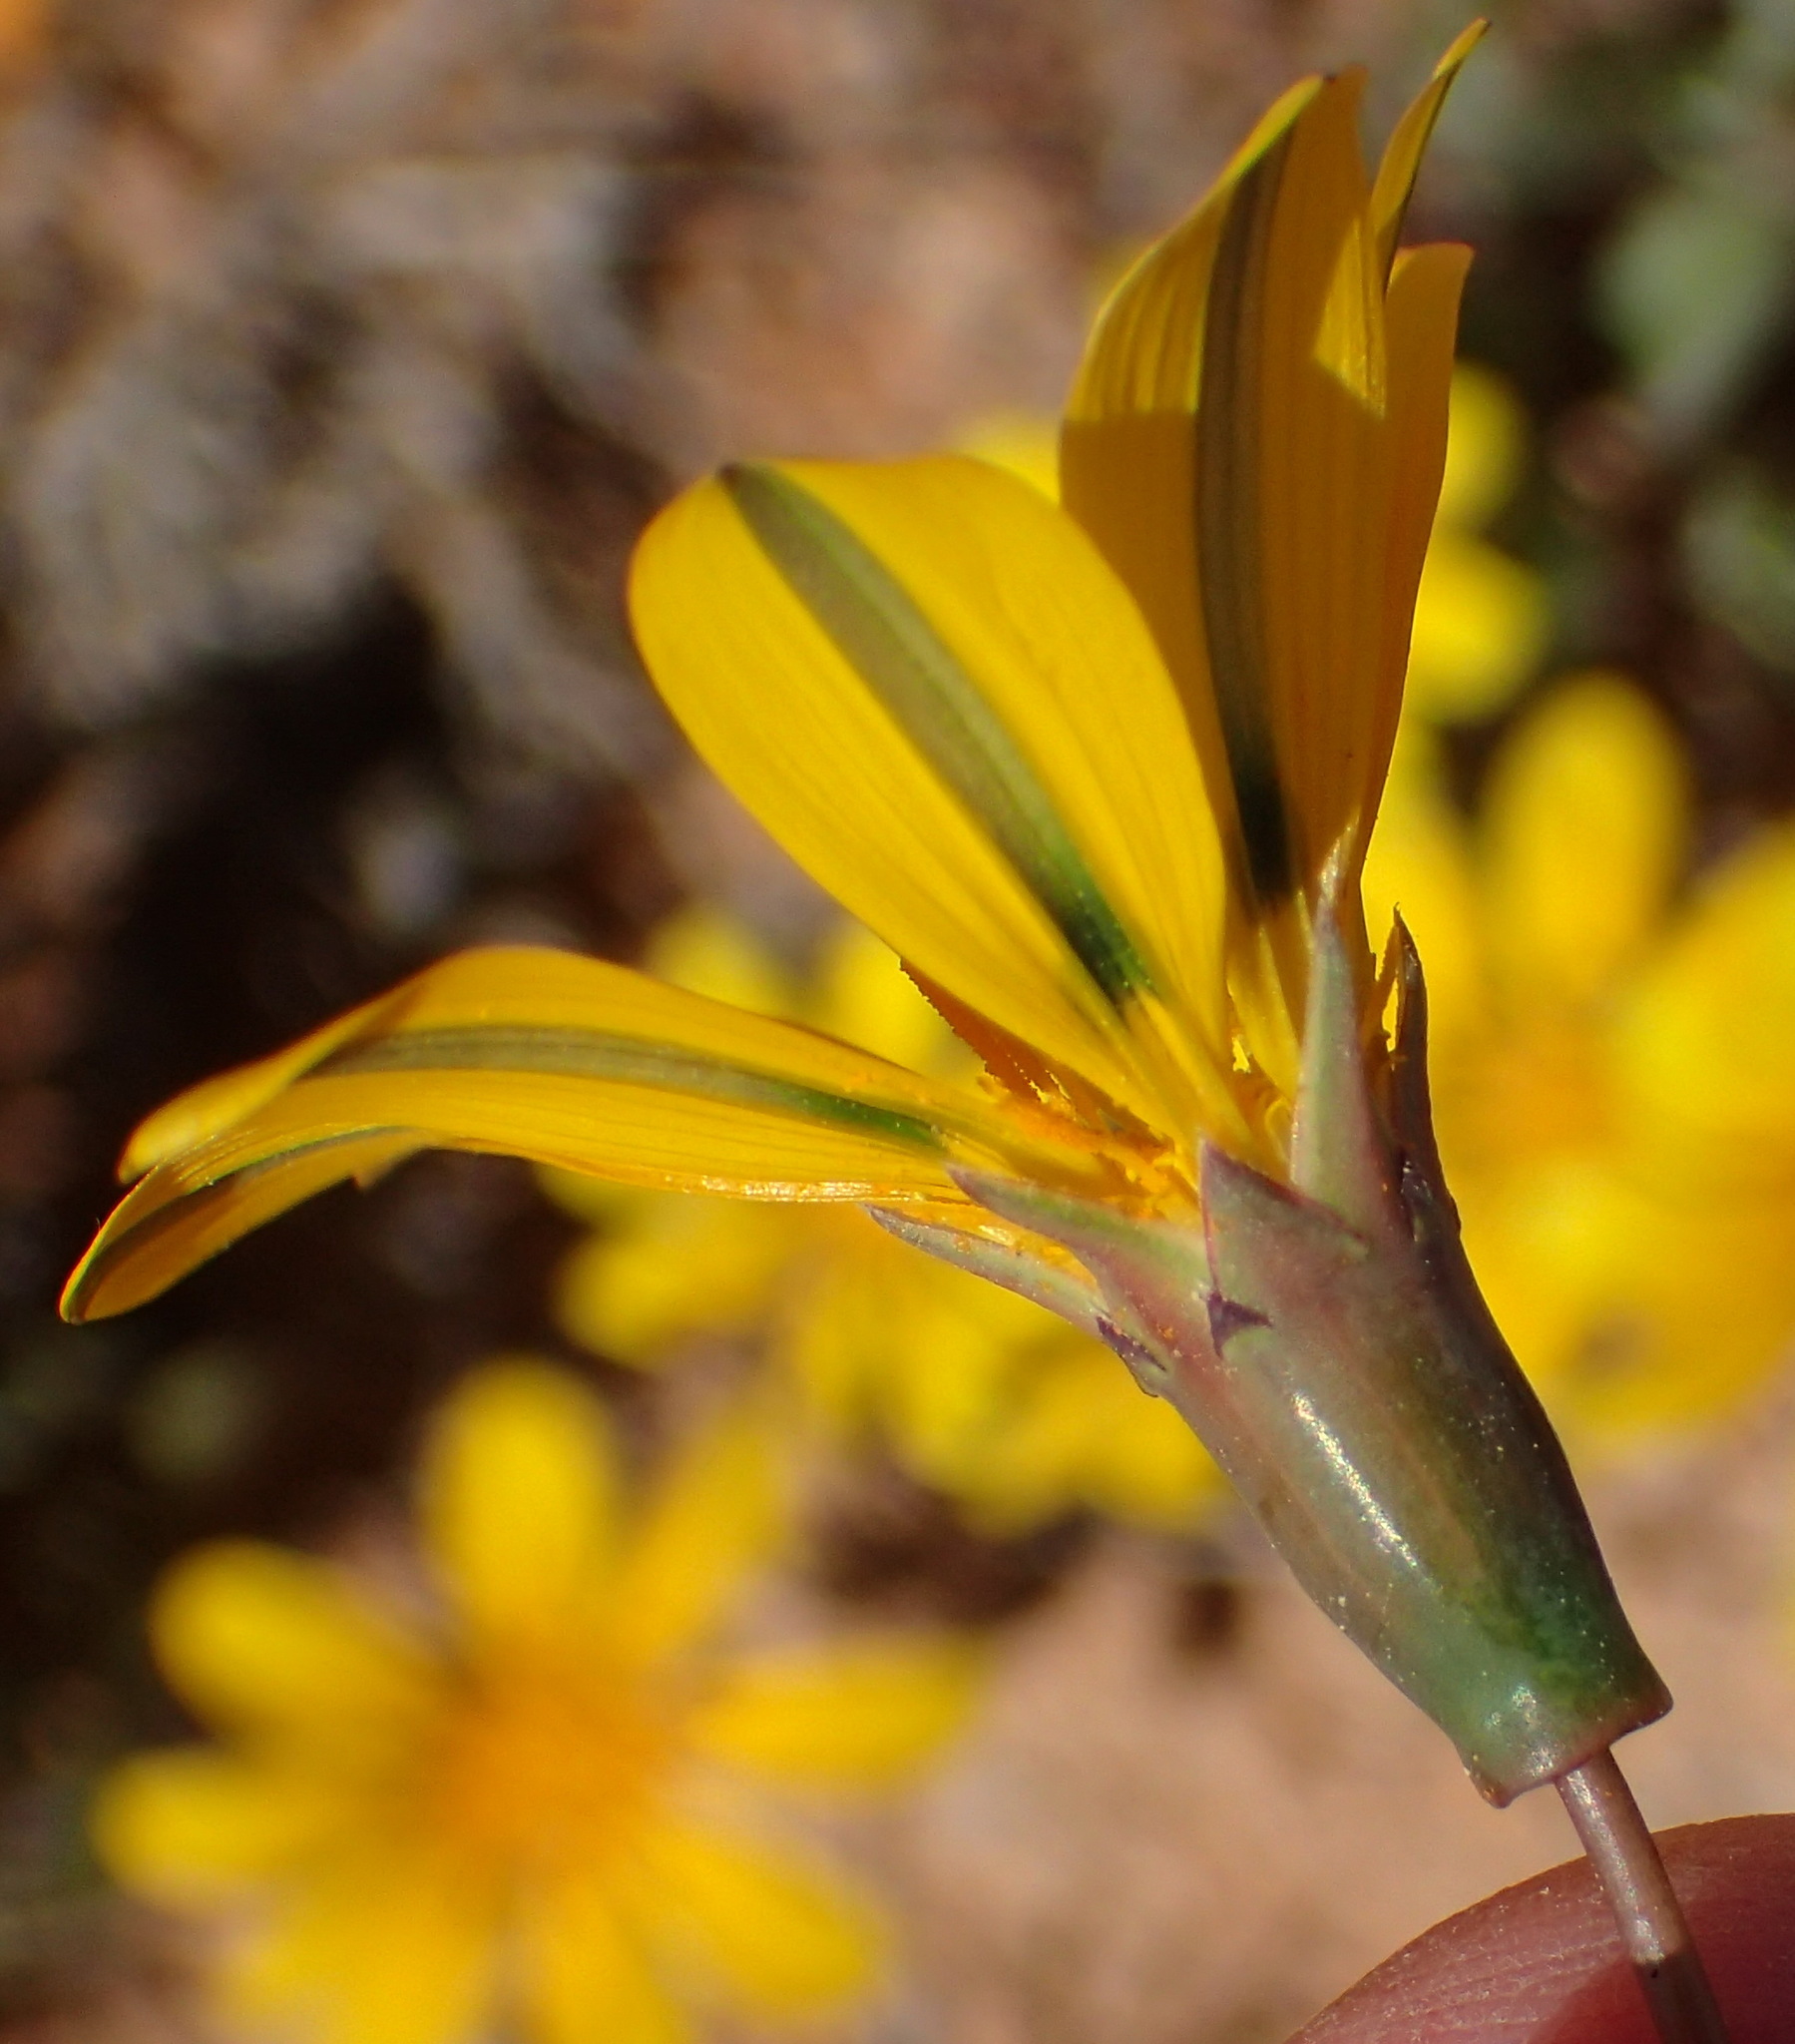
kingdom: Plantae
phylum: Tracheophyta
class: Magnoliopsida
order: Asterales
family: Asteraceae
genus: Gazania
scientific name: Gazania lichtensteinii
